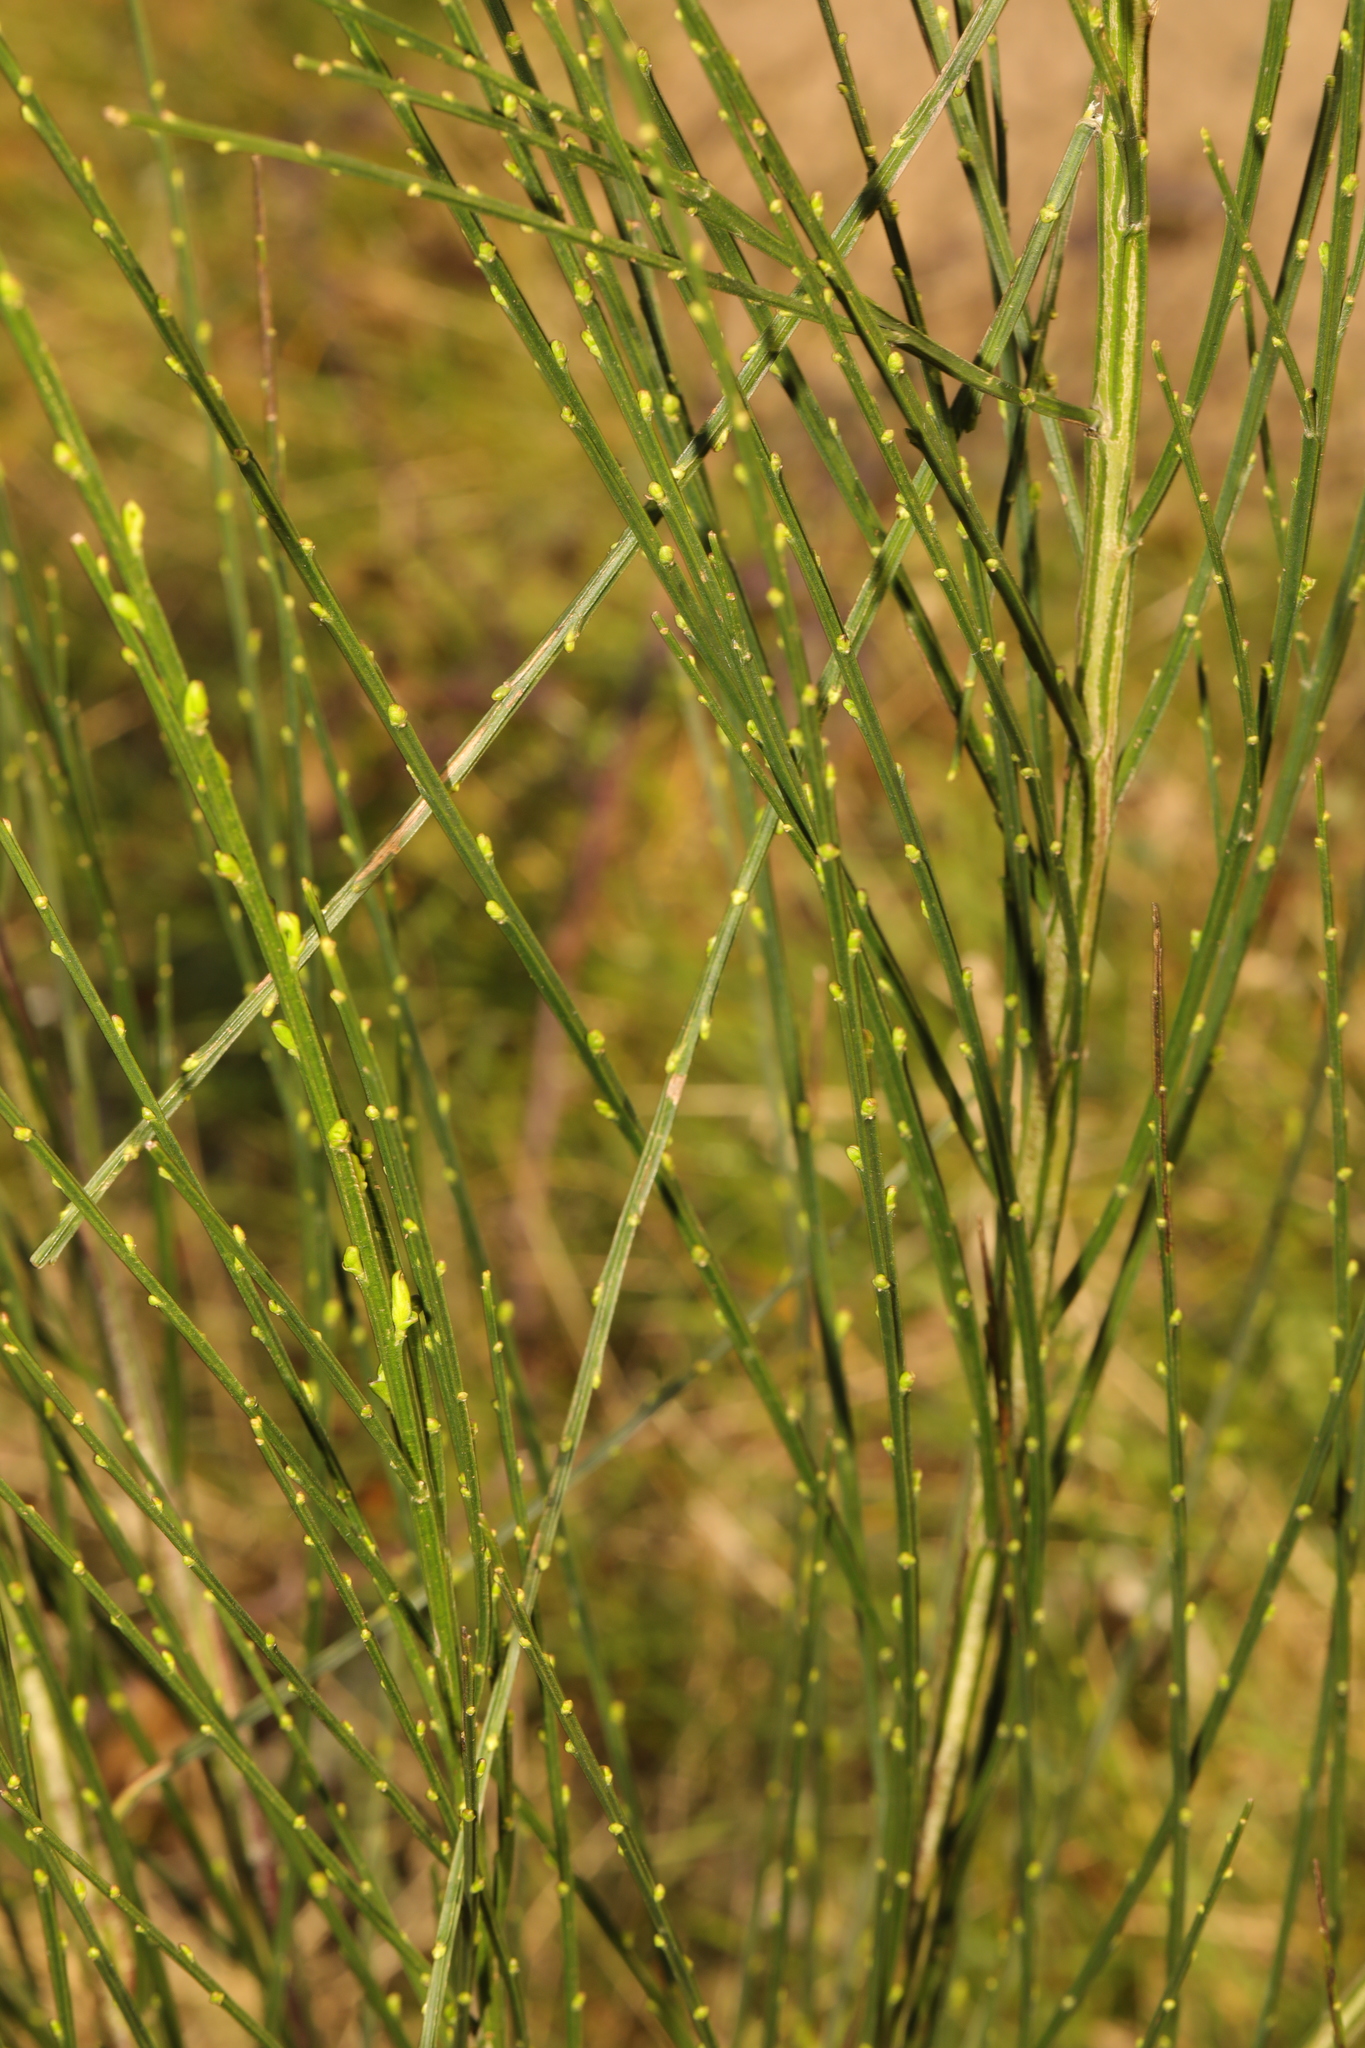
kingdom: Plantae
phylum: Tracheophyta
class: Magnoliopsida
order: Fabales
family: Fabaceae
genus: Cytisus
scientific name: Cytisus scoparius
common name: Scotch broom
